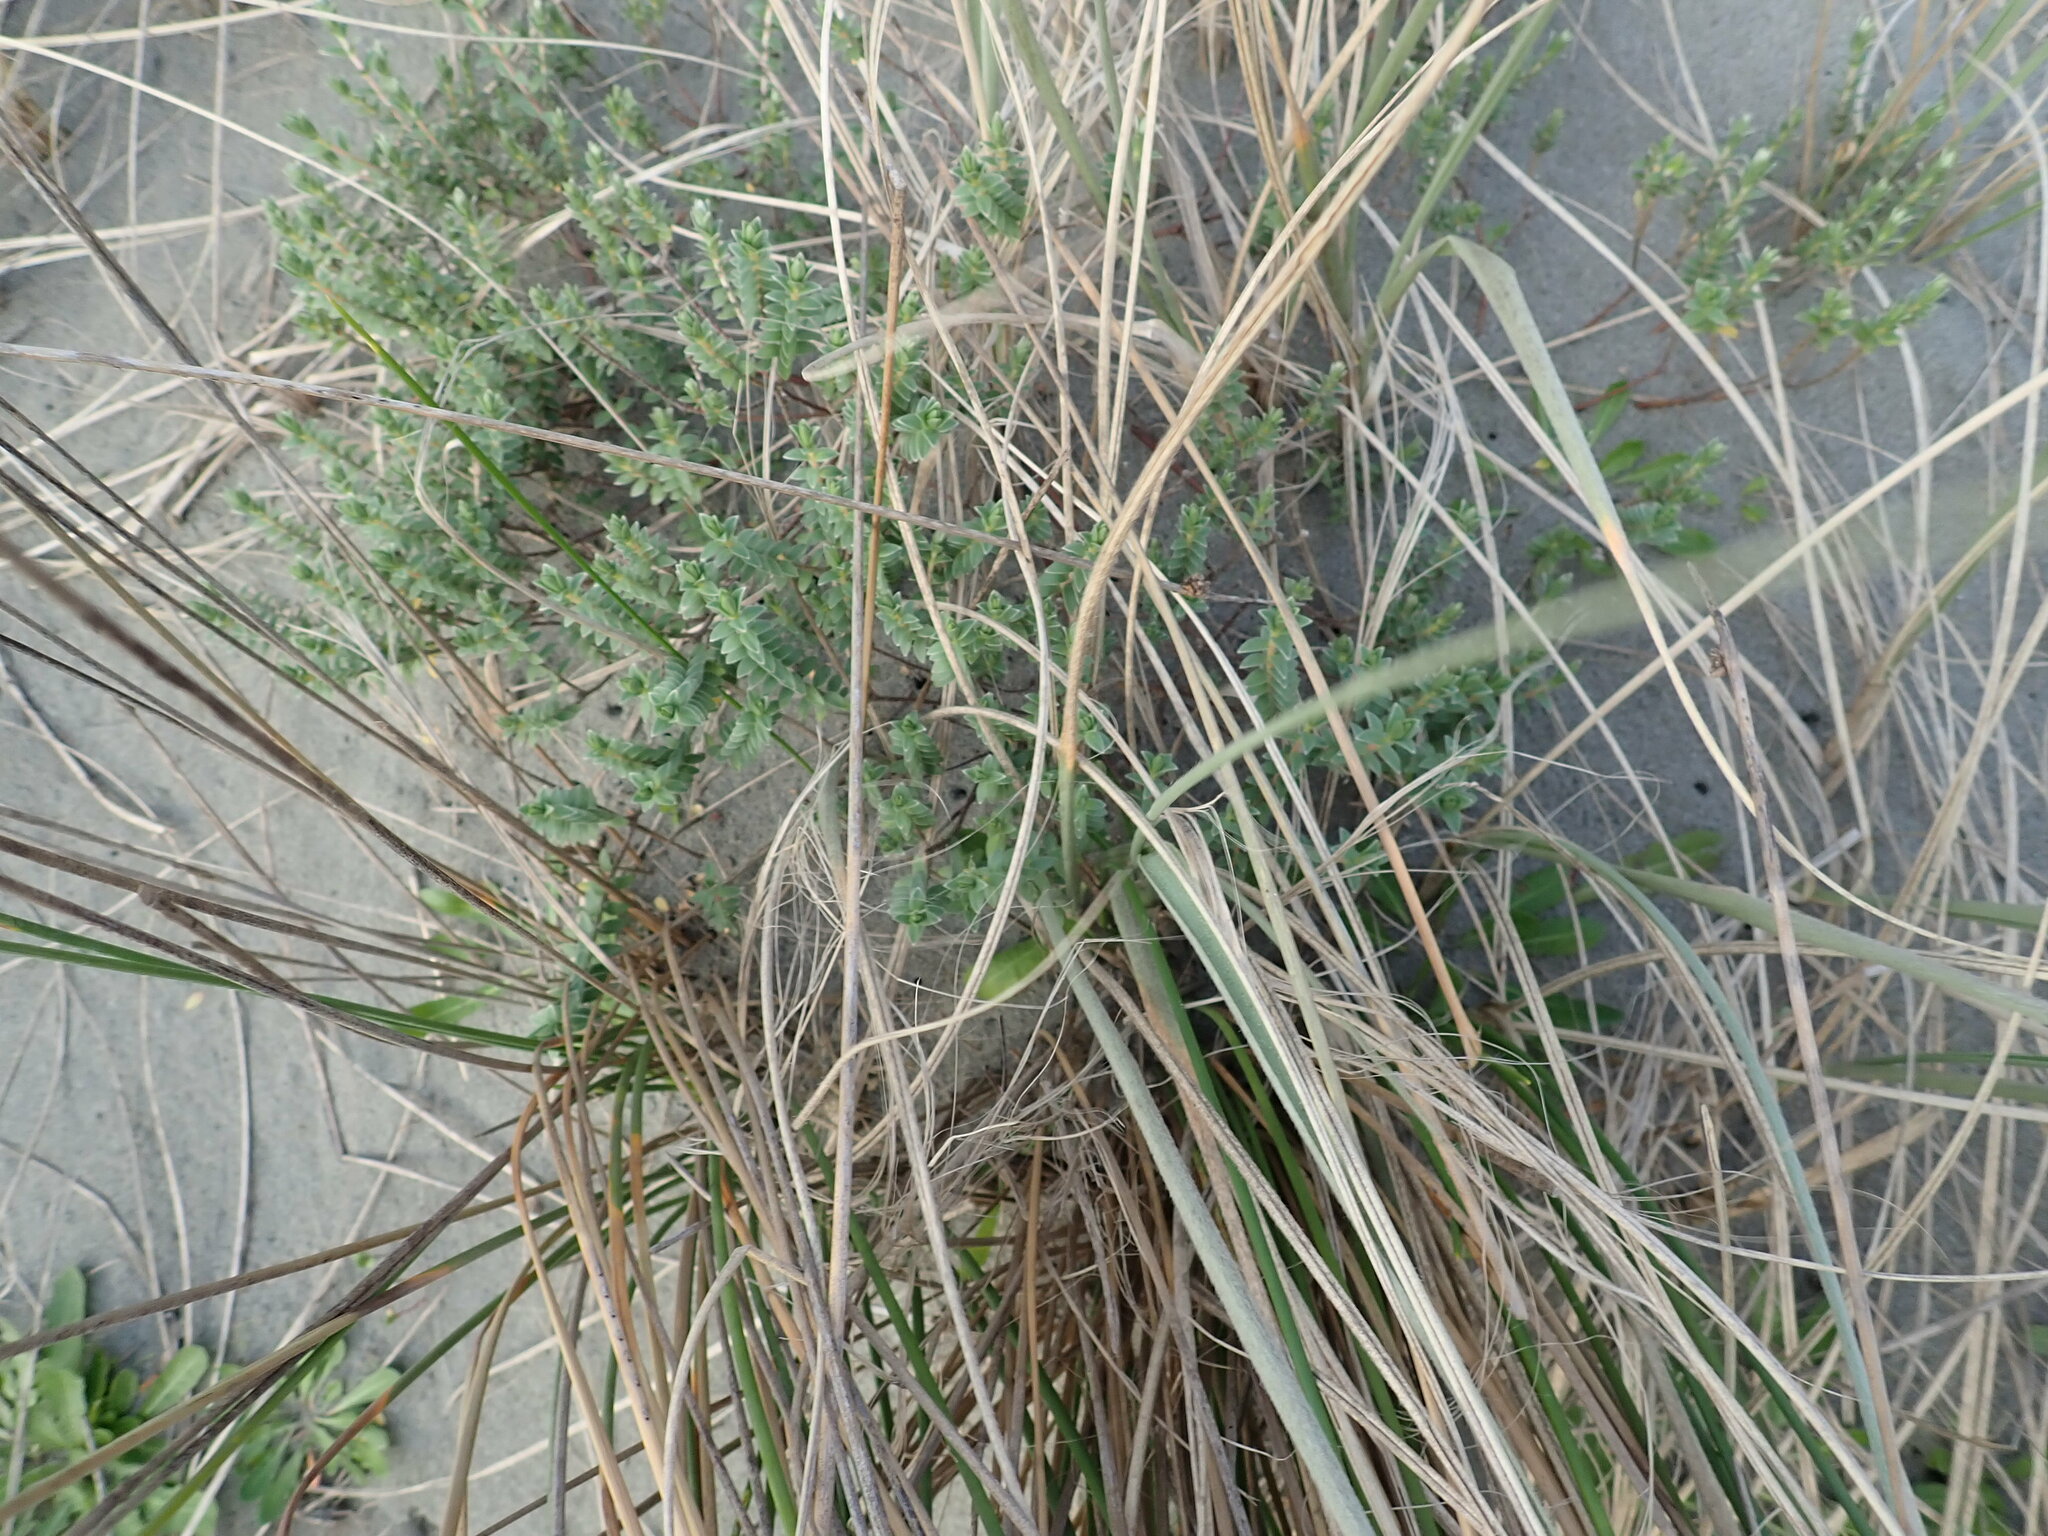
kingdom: Plantae
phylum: Tracheophyta
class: Magnoliopsida
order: Malvales
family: Thymelaeaceae
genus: Pimelea
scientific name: Pimelea villosa
